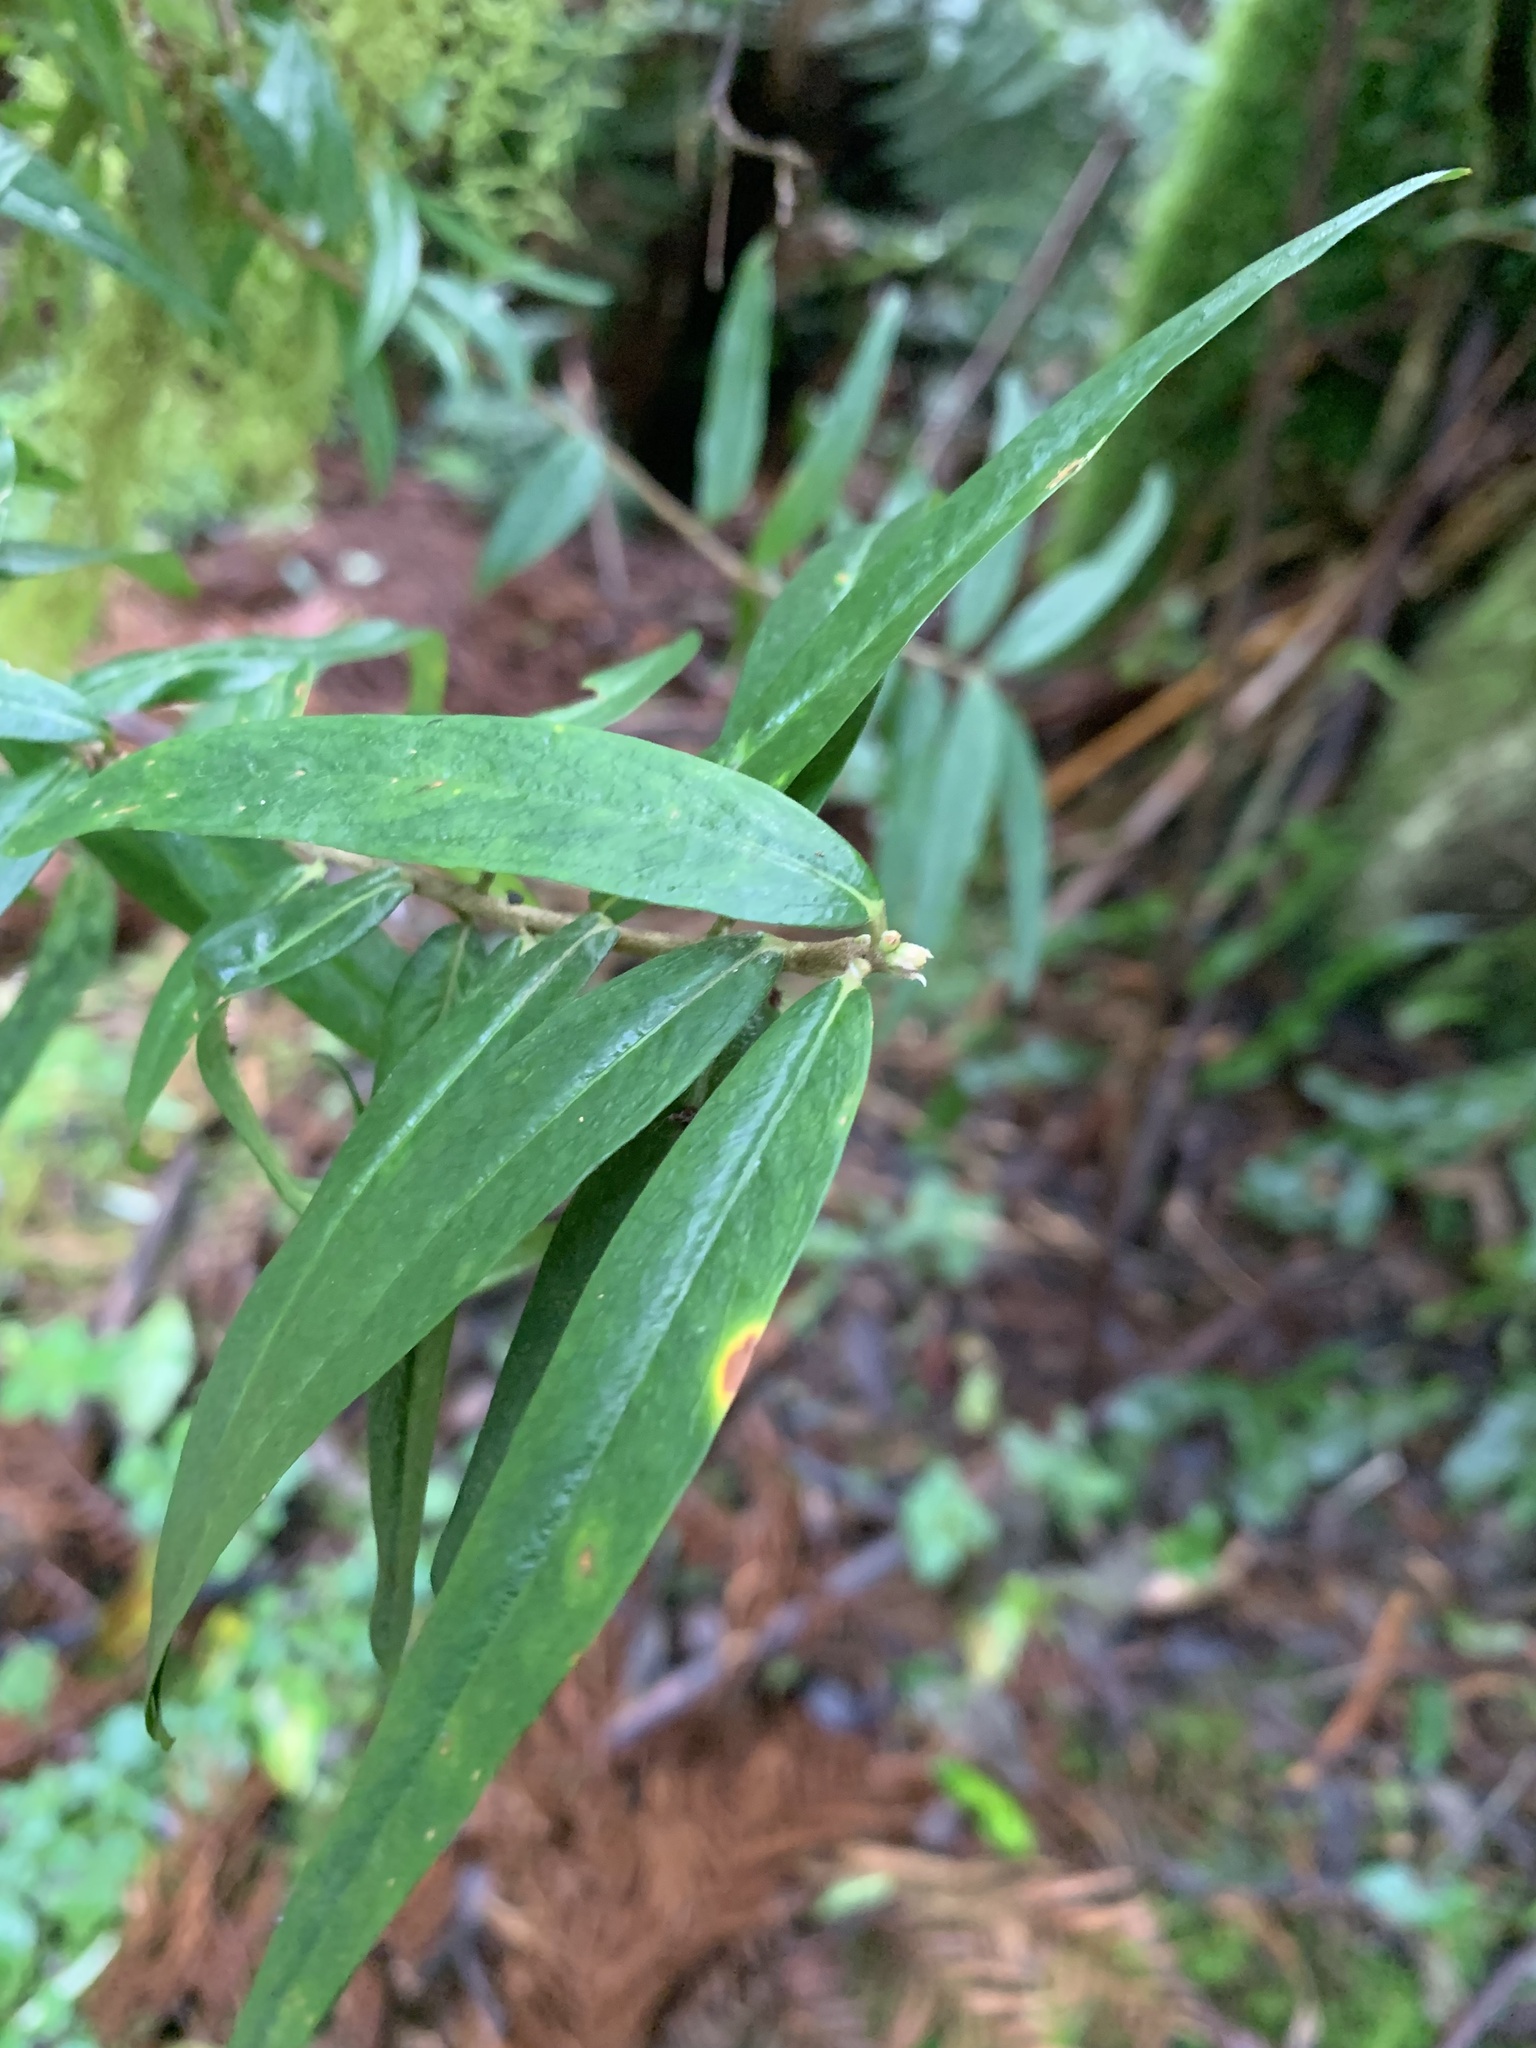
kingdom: Plantae
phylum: Tracheophyta
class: Magnoliopsida
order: Sapindales
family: Rutaceae
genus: Nematolepis
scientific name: Nematolepis squamea
